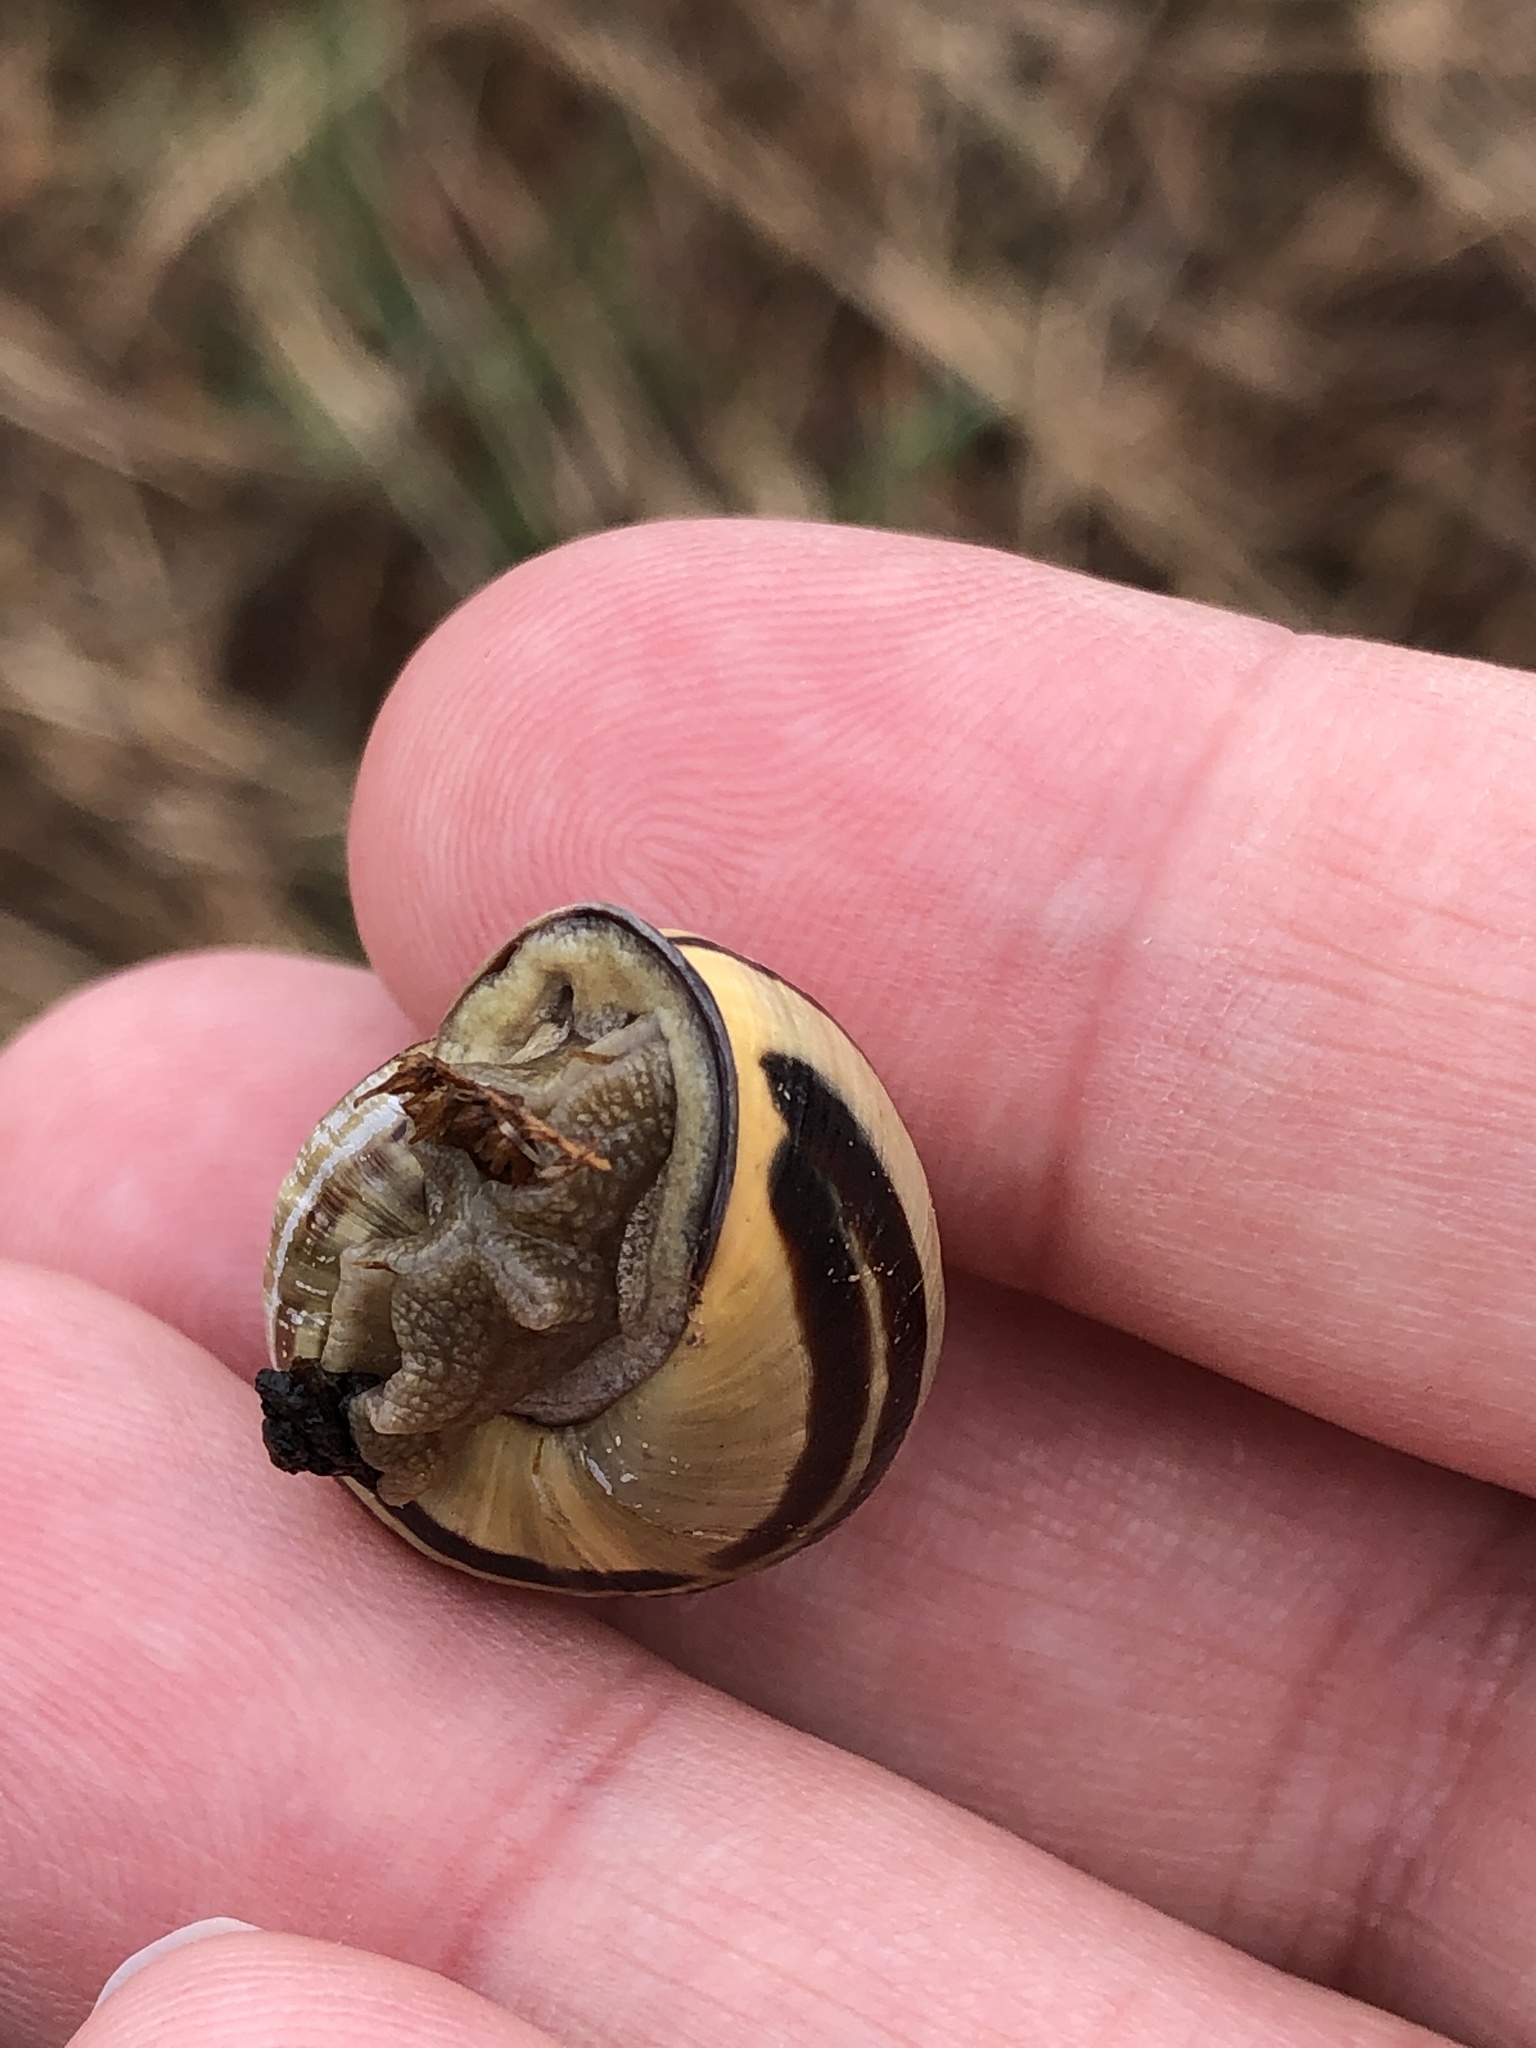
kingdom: Animalia
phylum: Mollusca
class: Gastropoda
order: Stylommatophora
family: Helicidae
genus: Cepaea
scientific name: Cepaea nemoralis
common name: Grovesnail
